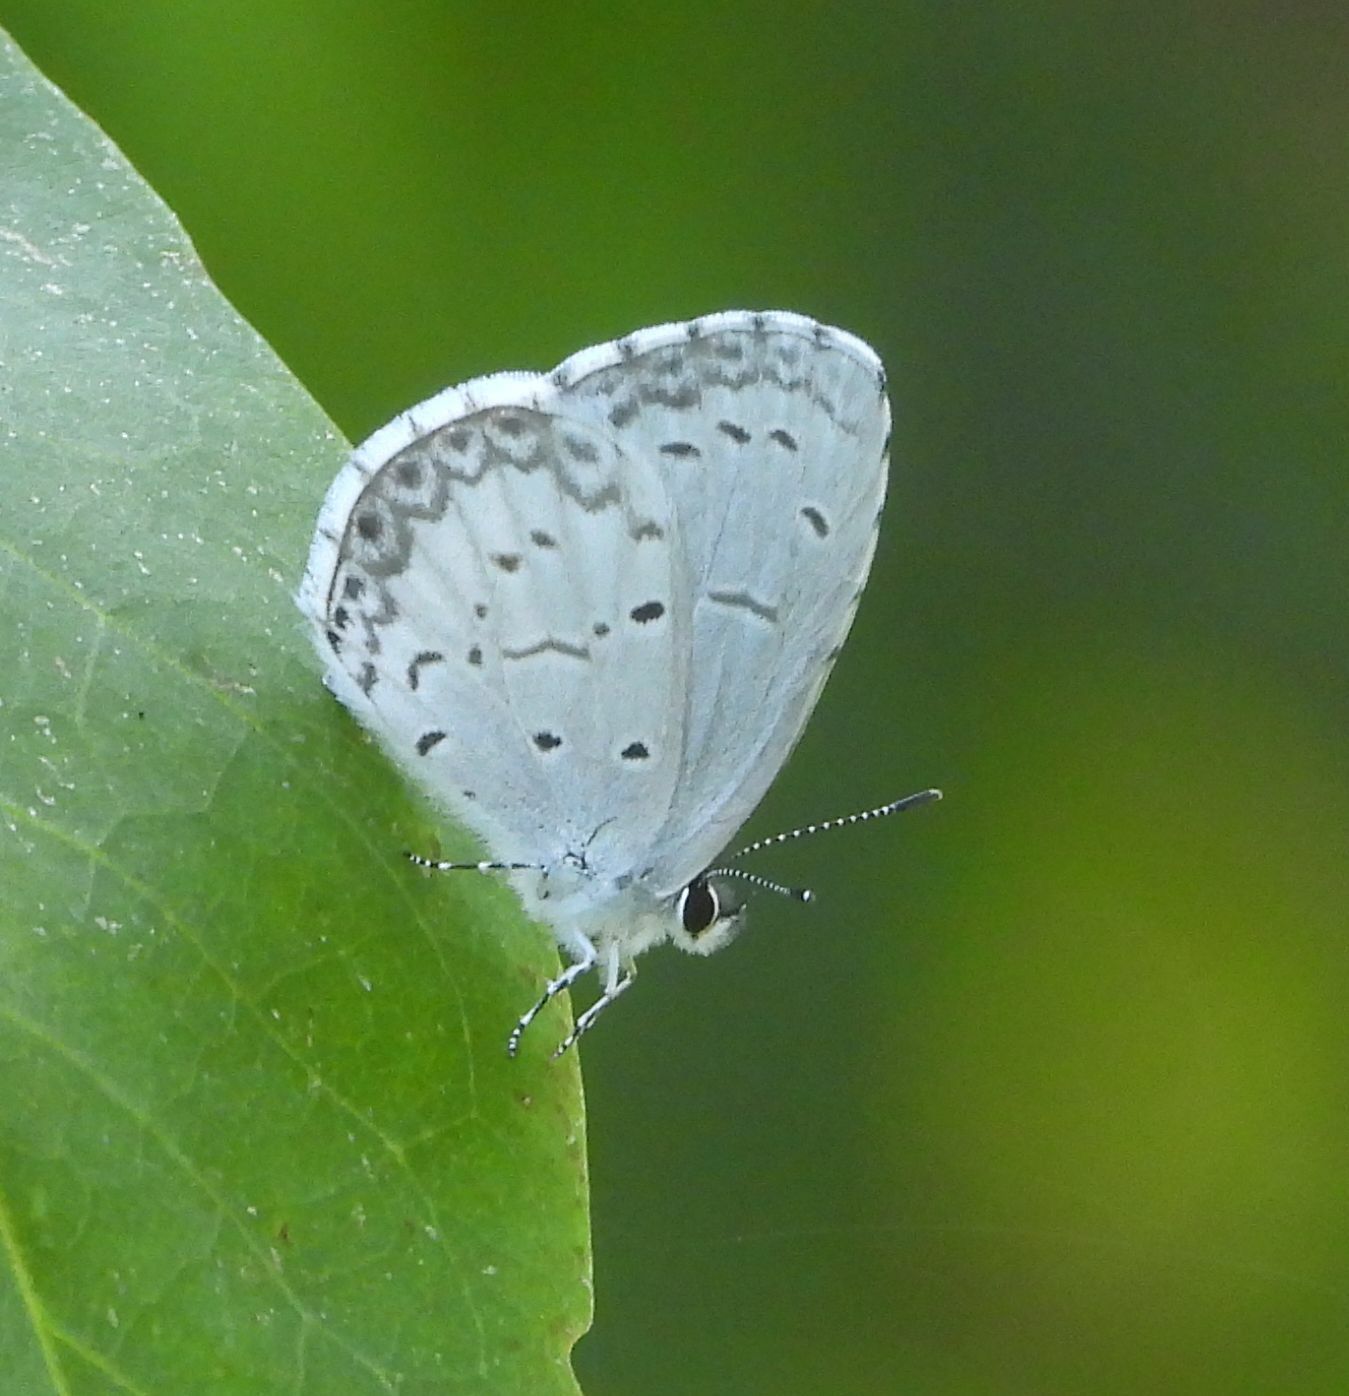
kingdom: Animalia
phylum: Arthropoda
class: Insecta
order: Lepidoptera
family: Lycaenidae
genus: Celastrina
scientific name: Celastrina lucia
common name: Lucia azure
